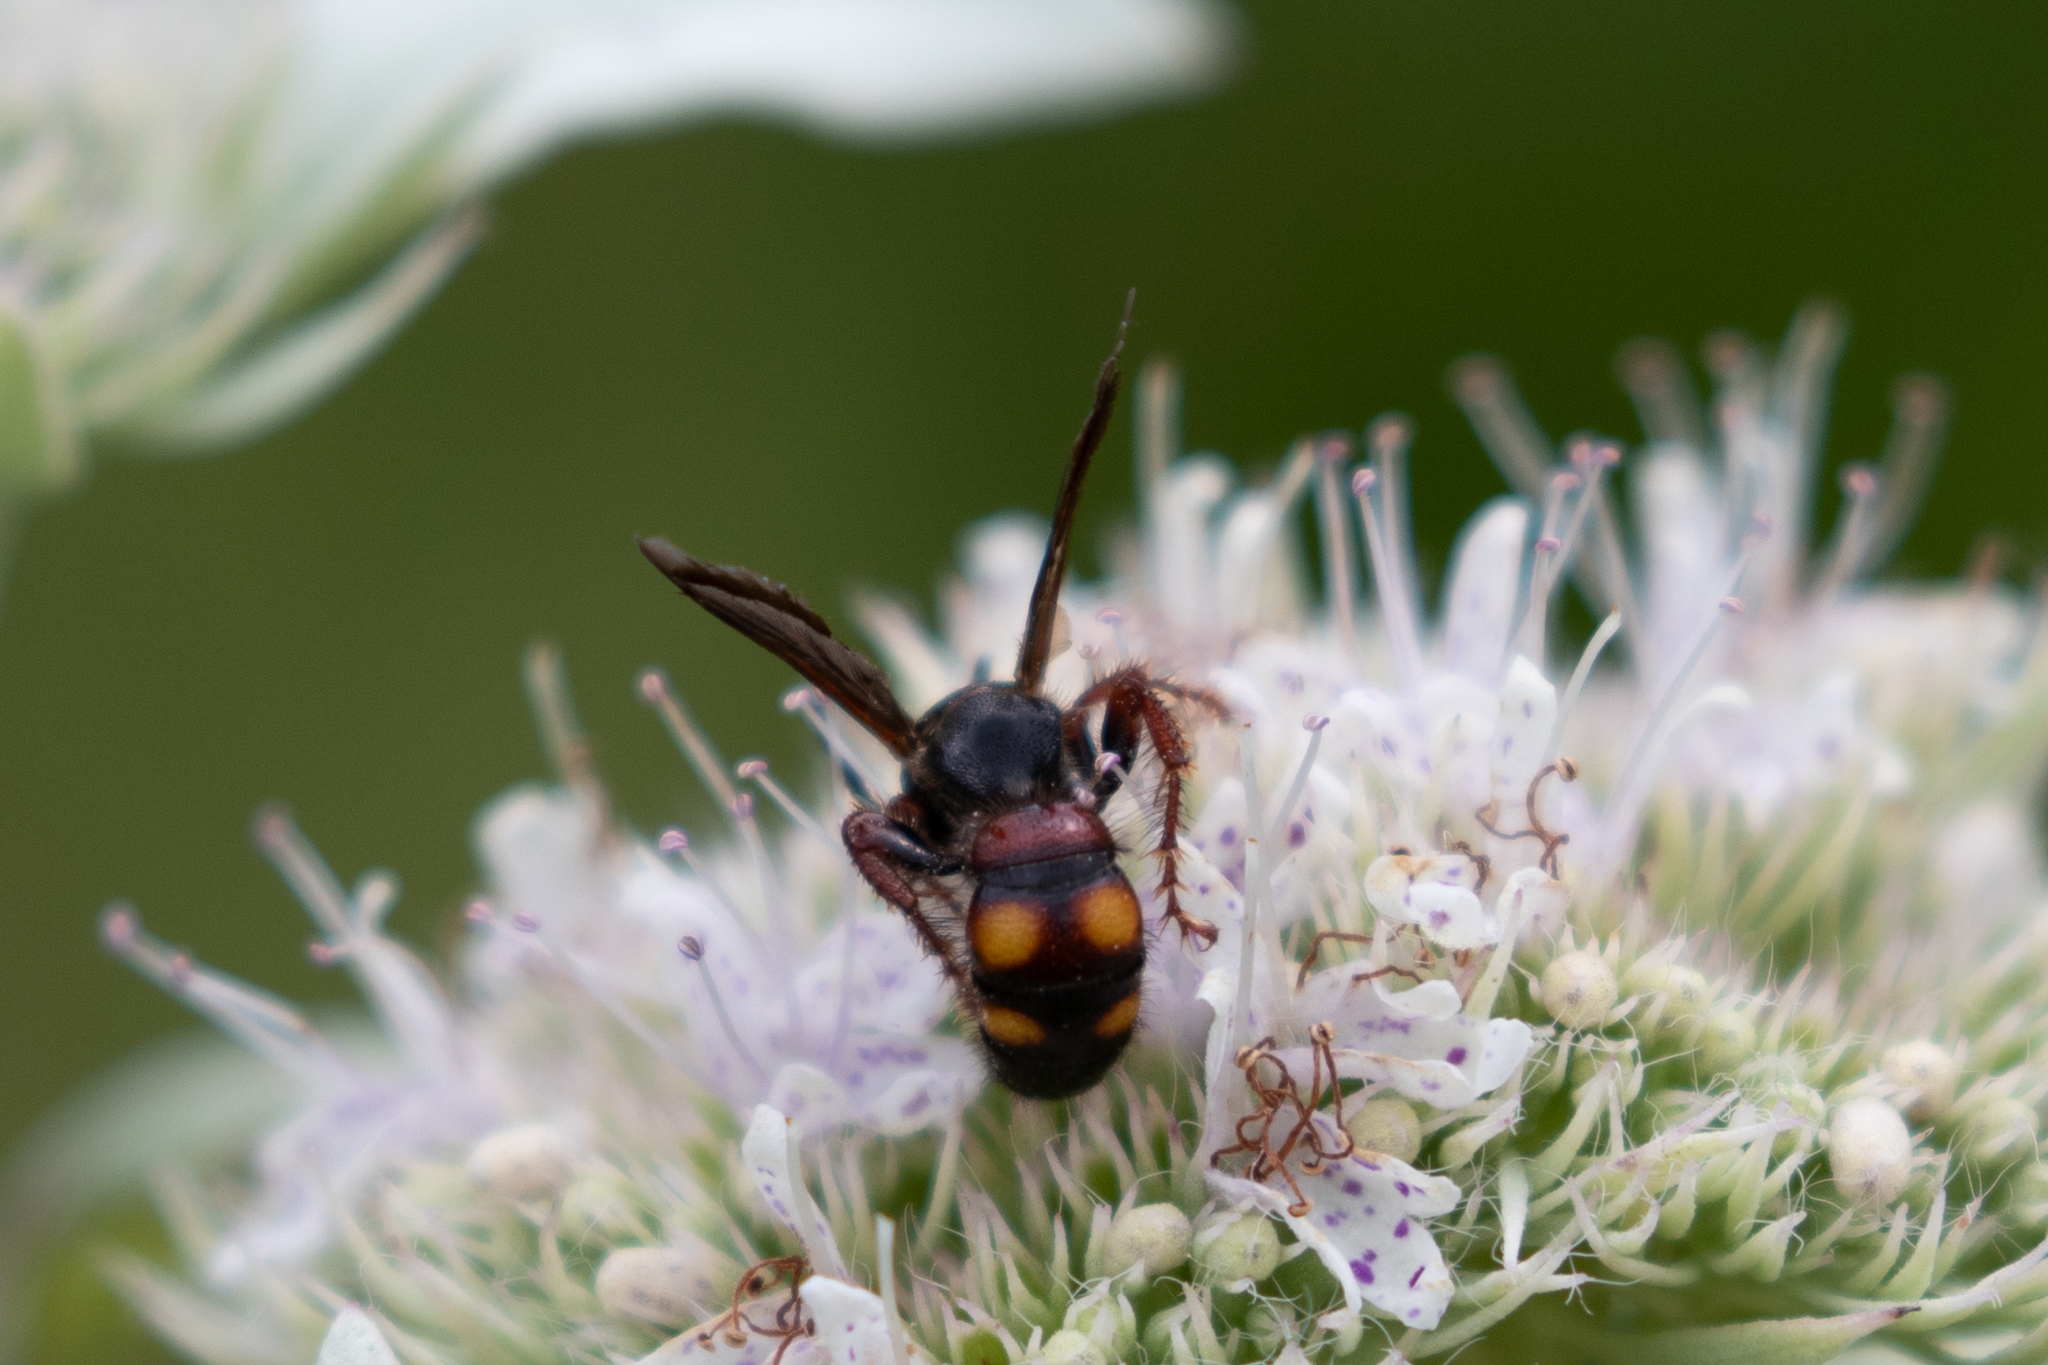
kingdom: Animalia
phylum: Arthropoda
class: Insecta
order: Hymenoptera
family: Scoliidae
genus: Scolia
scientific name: Scolia nobilitata
